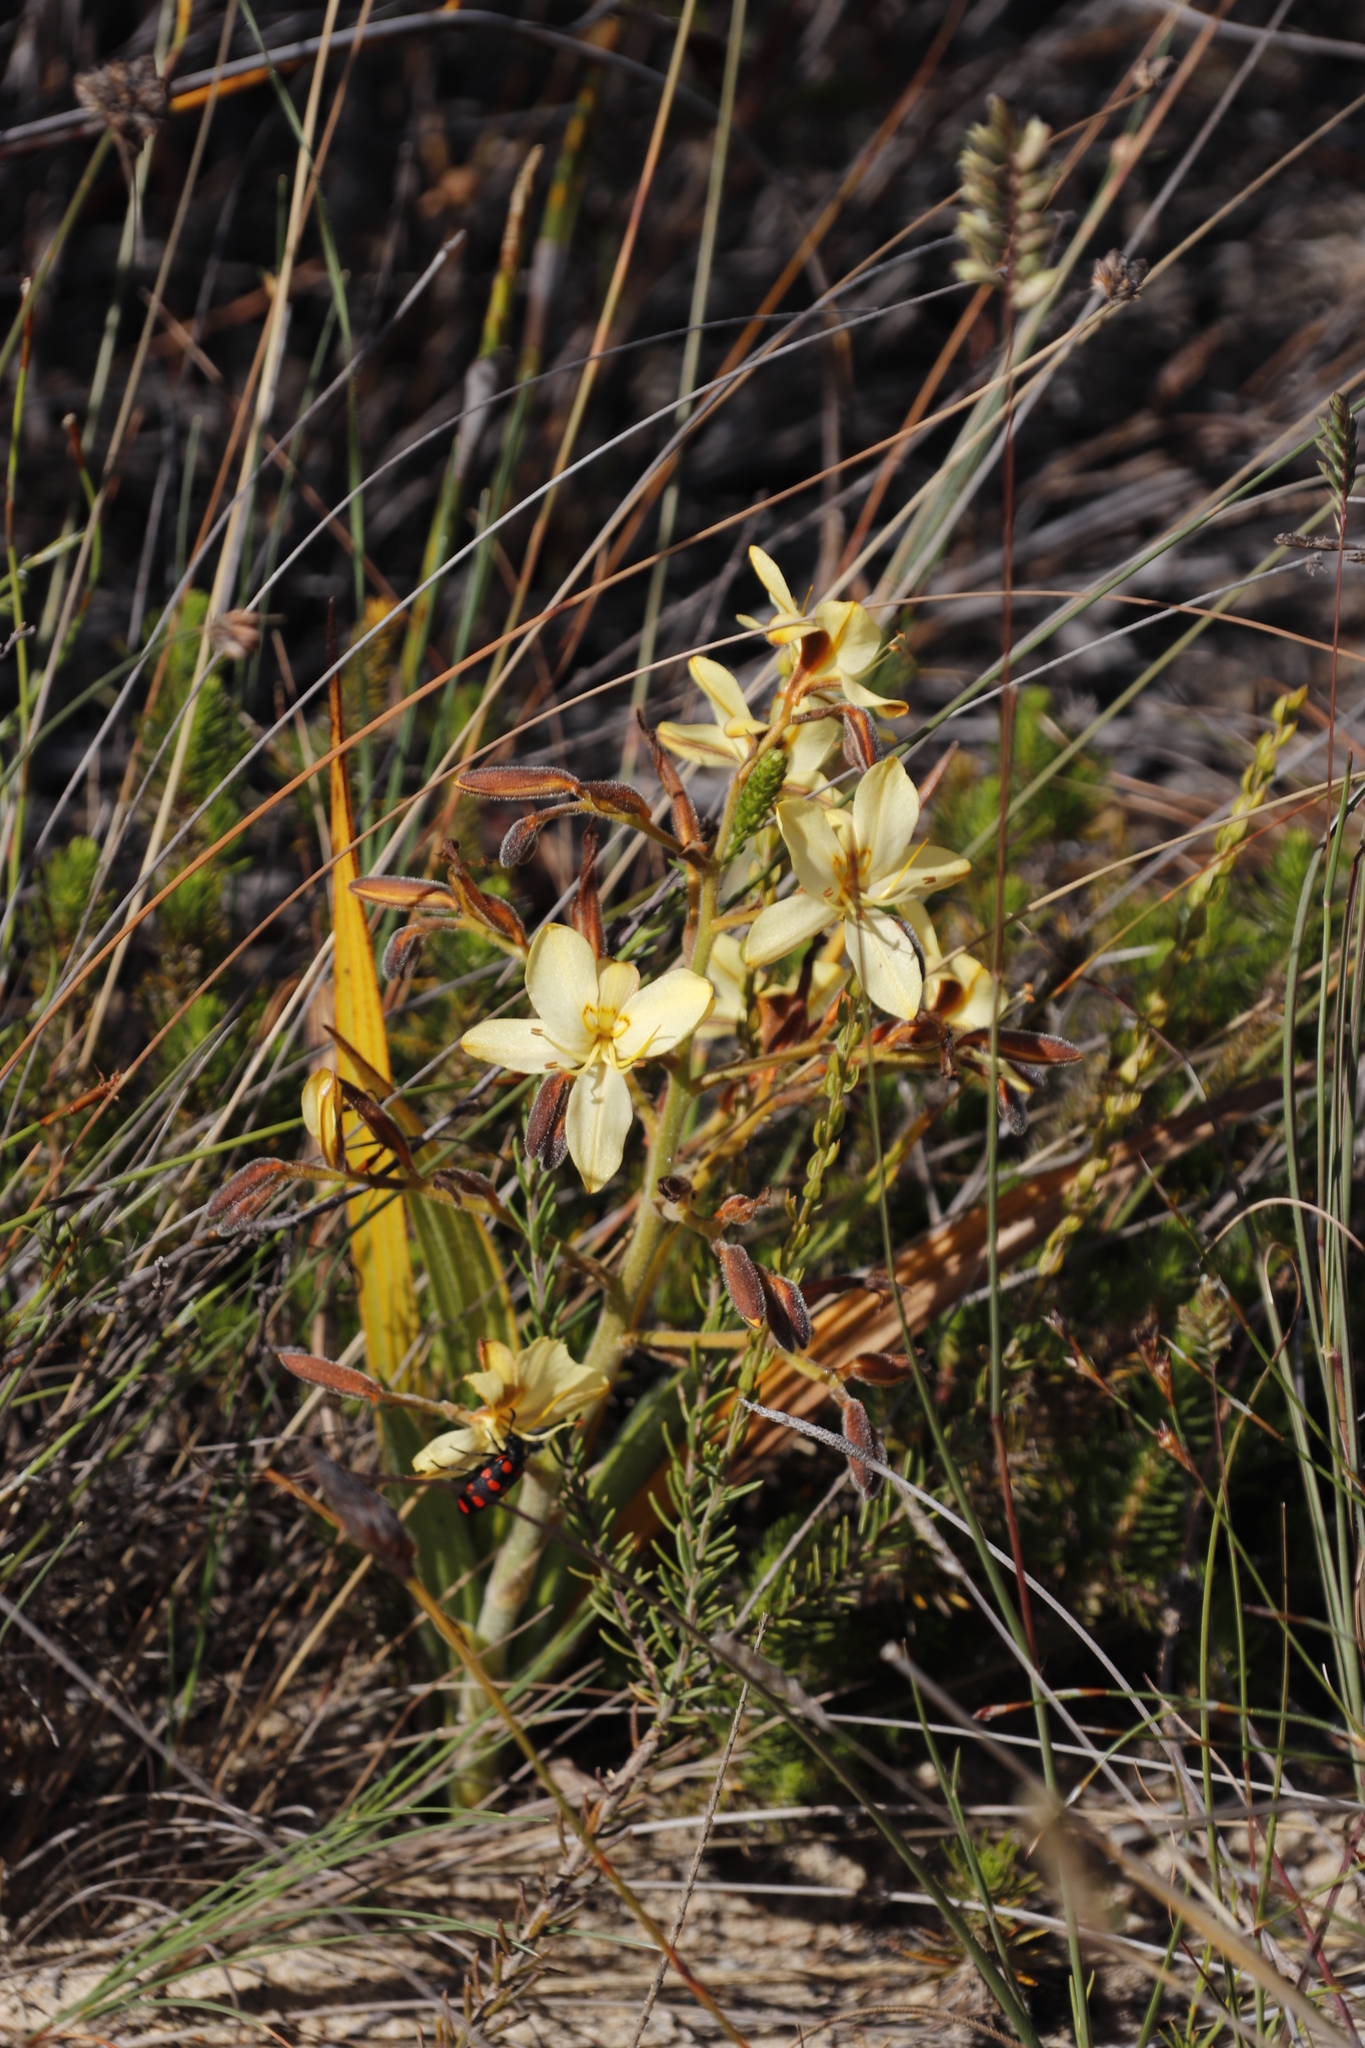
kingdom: Plantae
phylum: Tracheophyta
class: Liliopsida
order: Commelinales
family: Haemodoraceae
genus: Wachendorfia
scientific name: Wachendorfia paniculata
